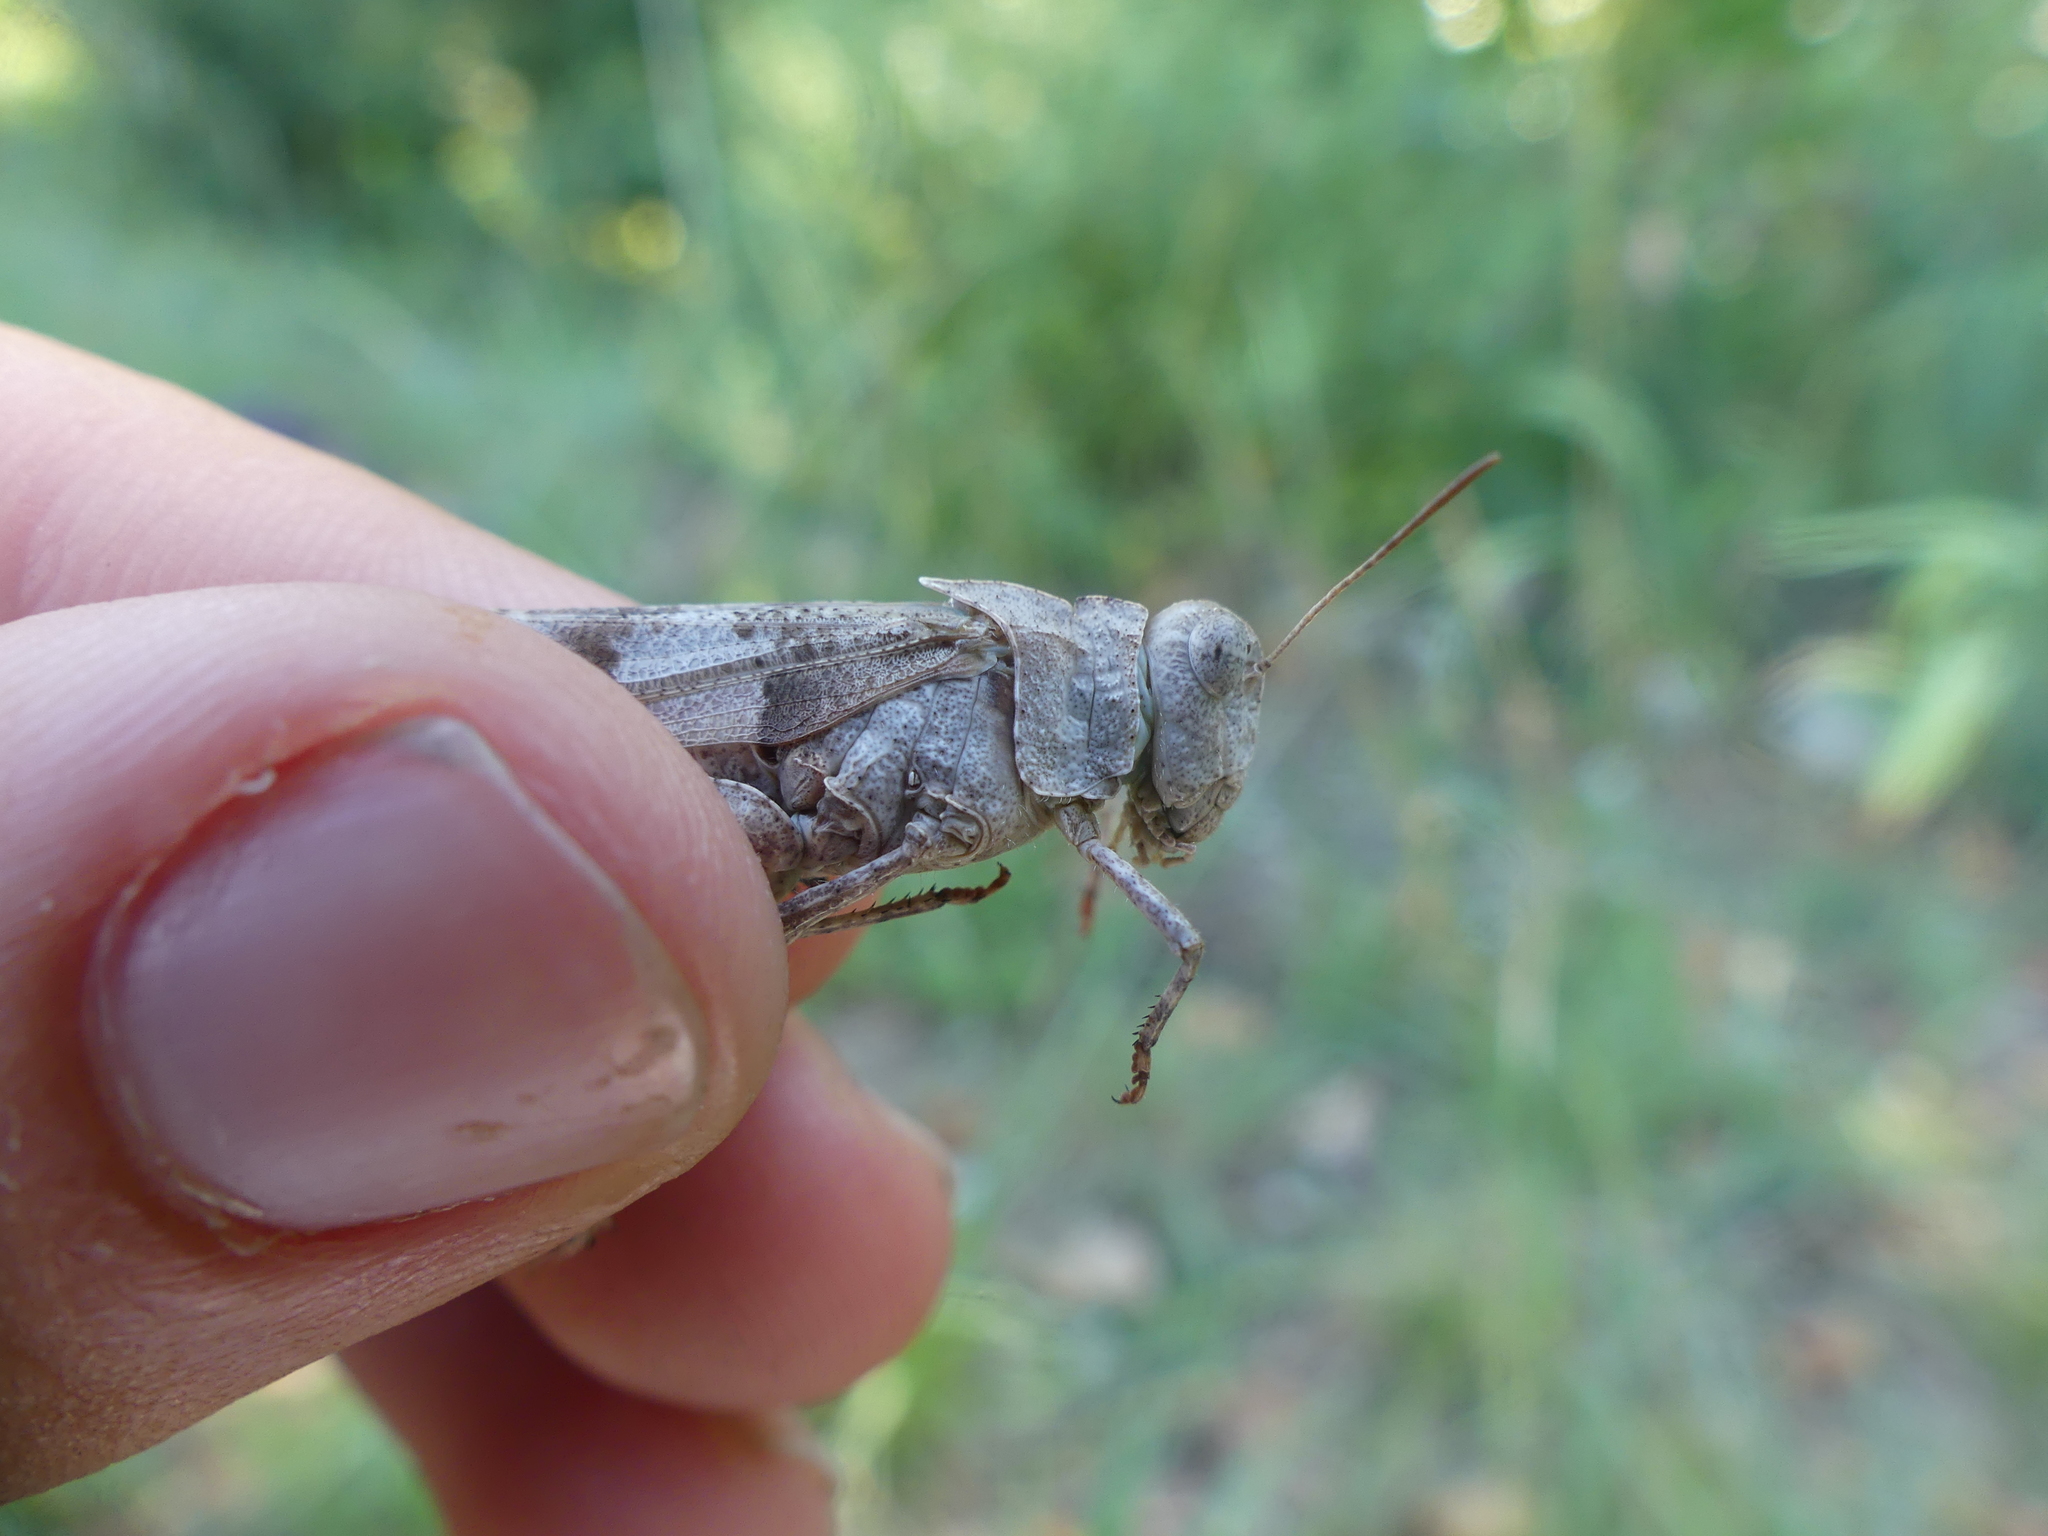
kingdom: Animalia
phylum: Arthropoda
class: Insecta
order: Orthoptera
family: Acrididae
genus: Oedipoda
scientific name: Oedipoda caerulescens
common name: Blue-winged grasshopper
